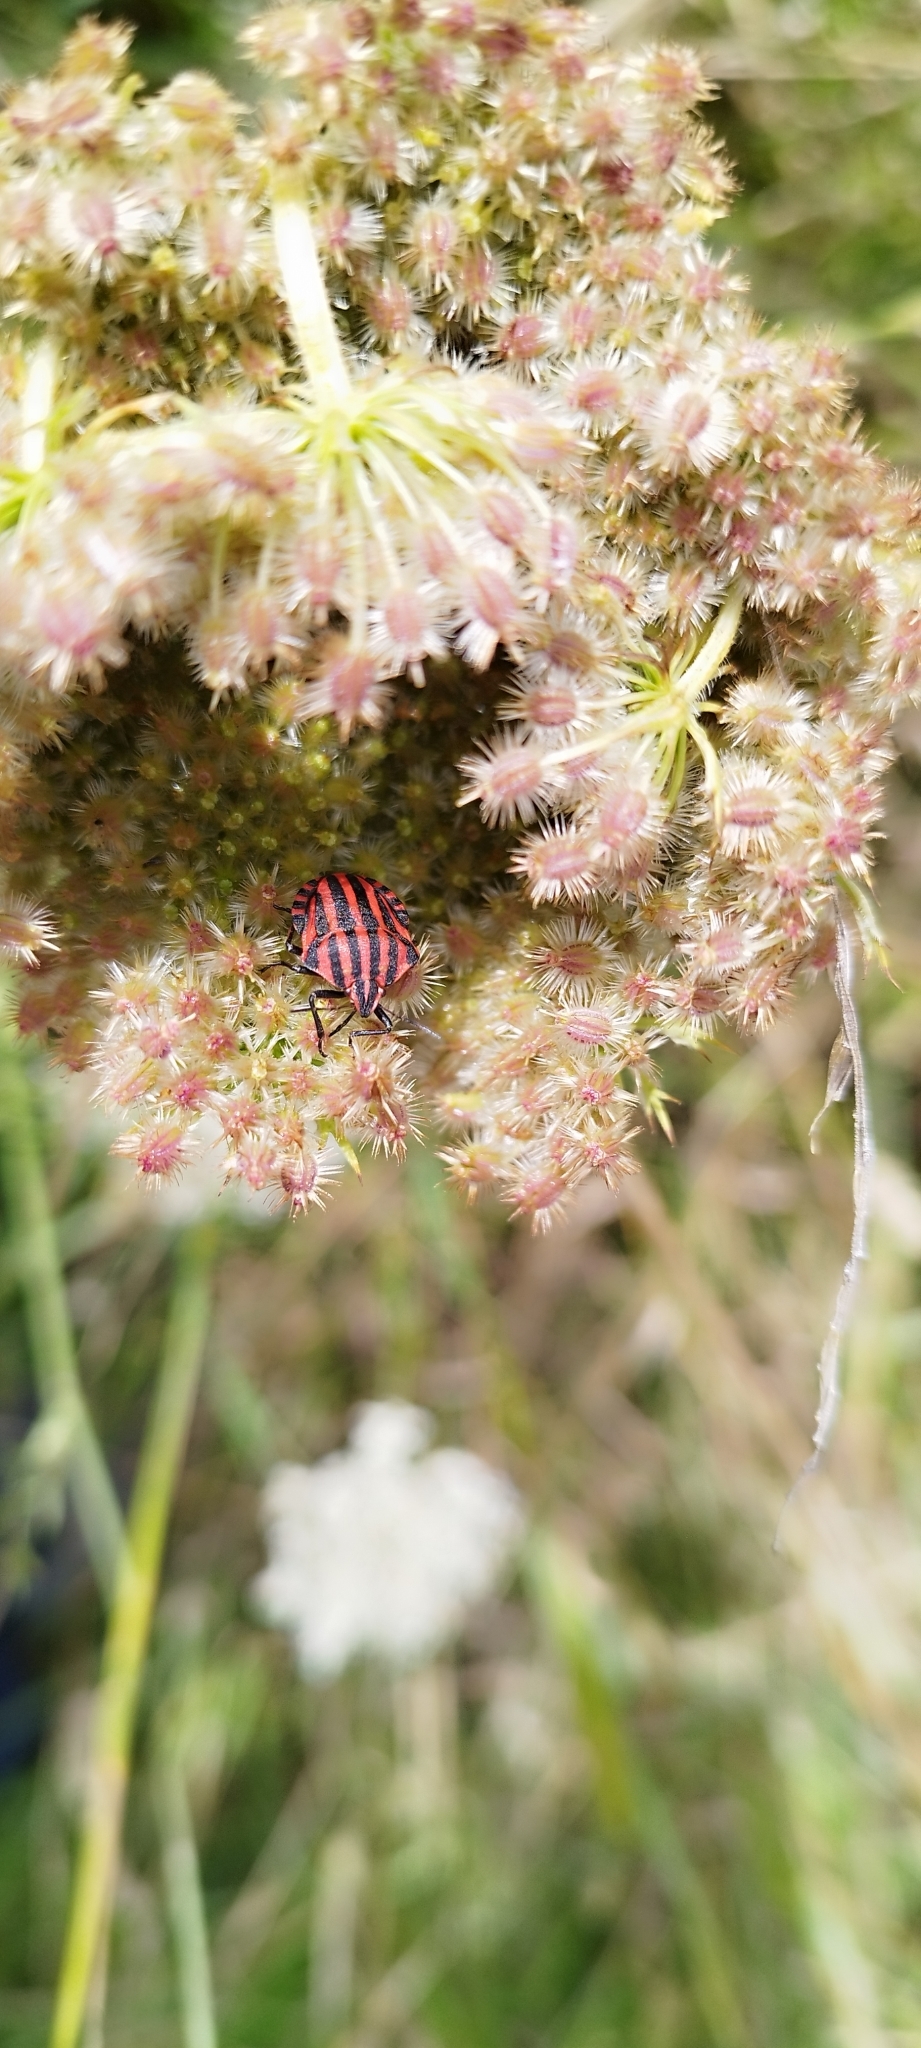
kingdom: Animalia
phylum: Arthropoda
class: Insecta
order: Hemiptera
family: Pentatomidae
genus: Graphosoma
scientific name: Graphosoma italicum
